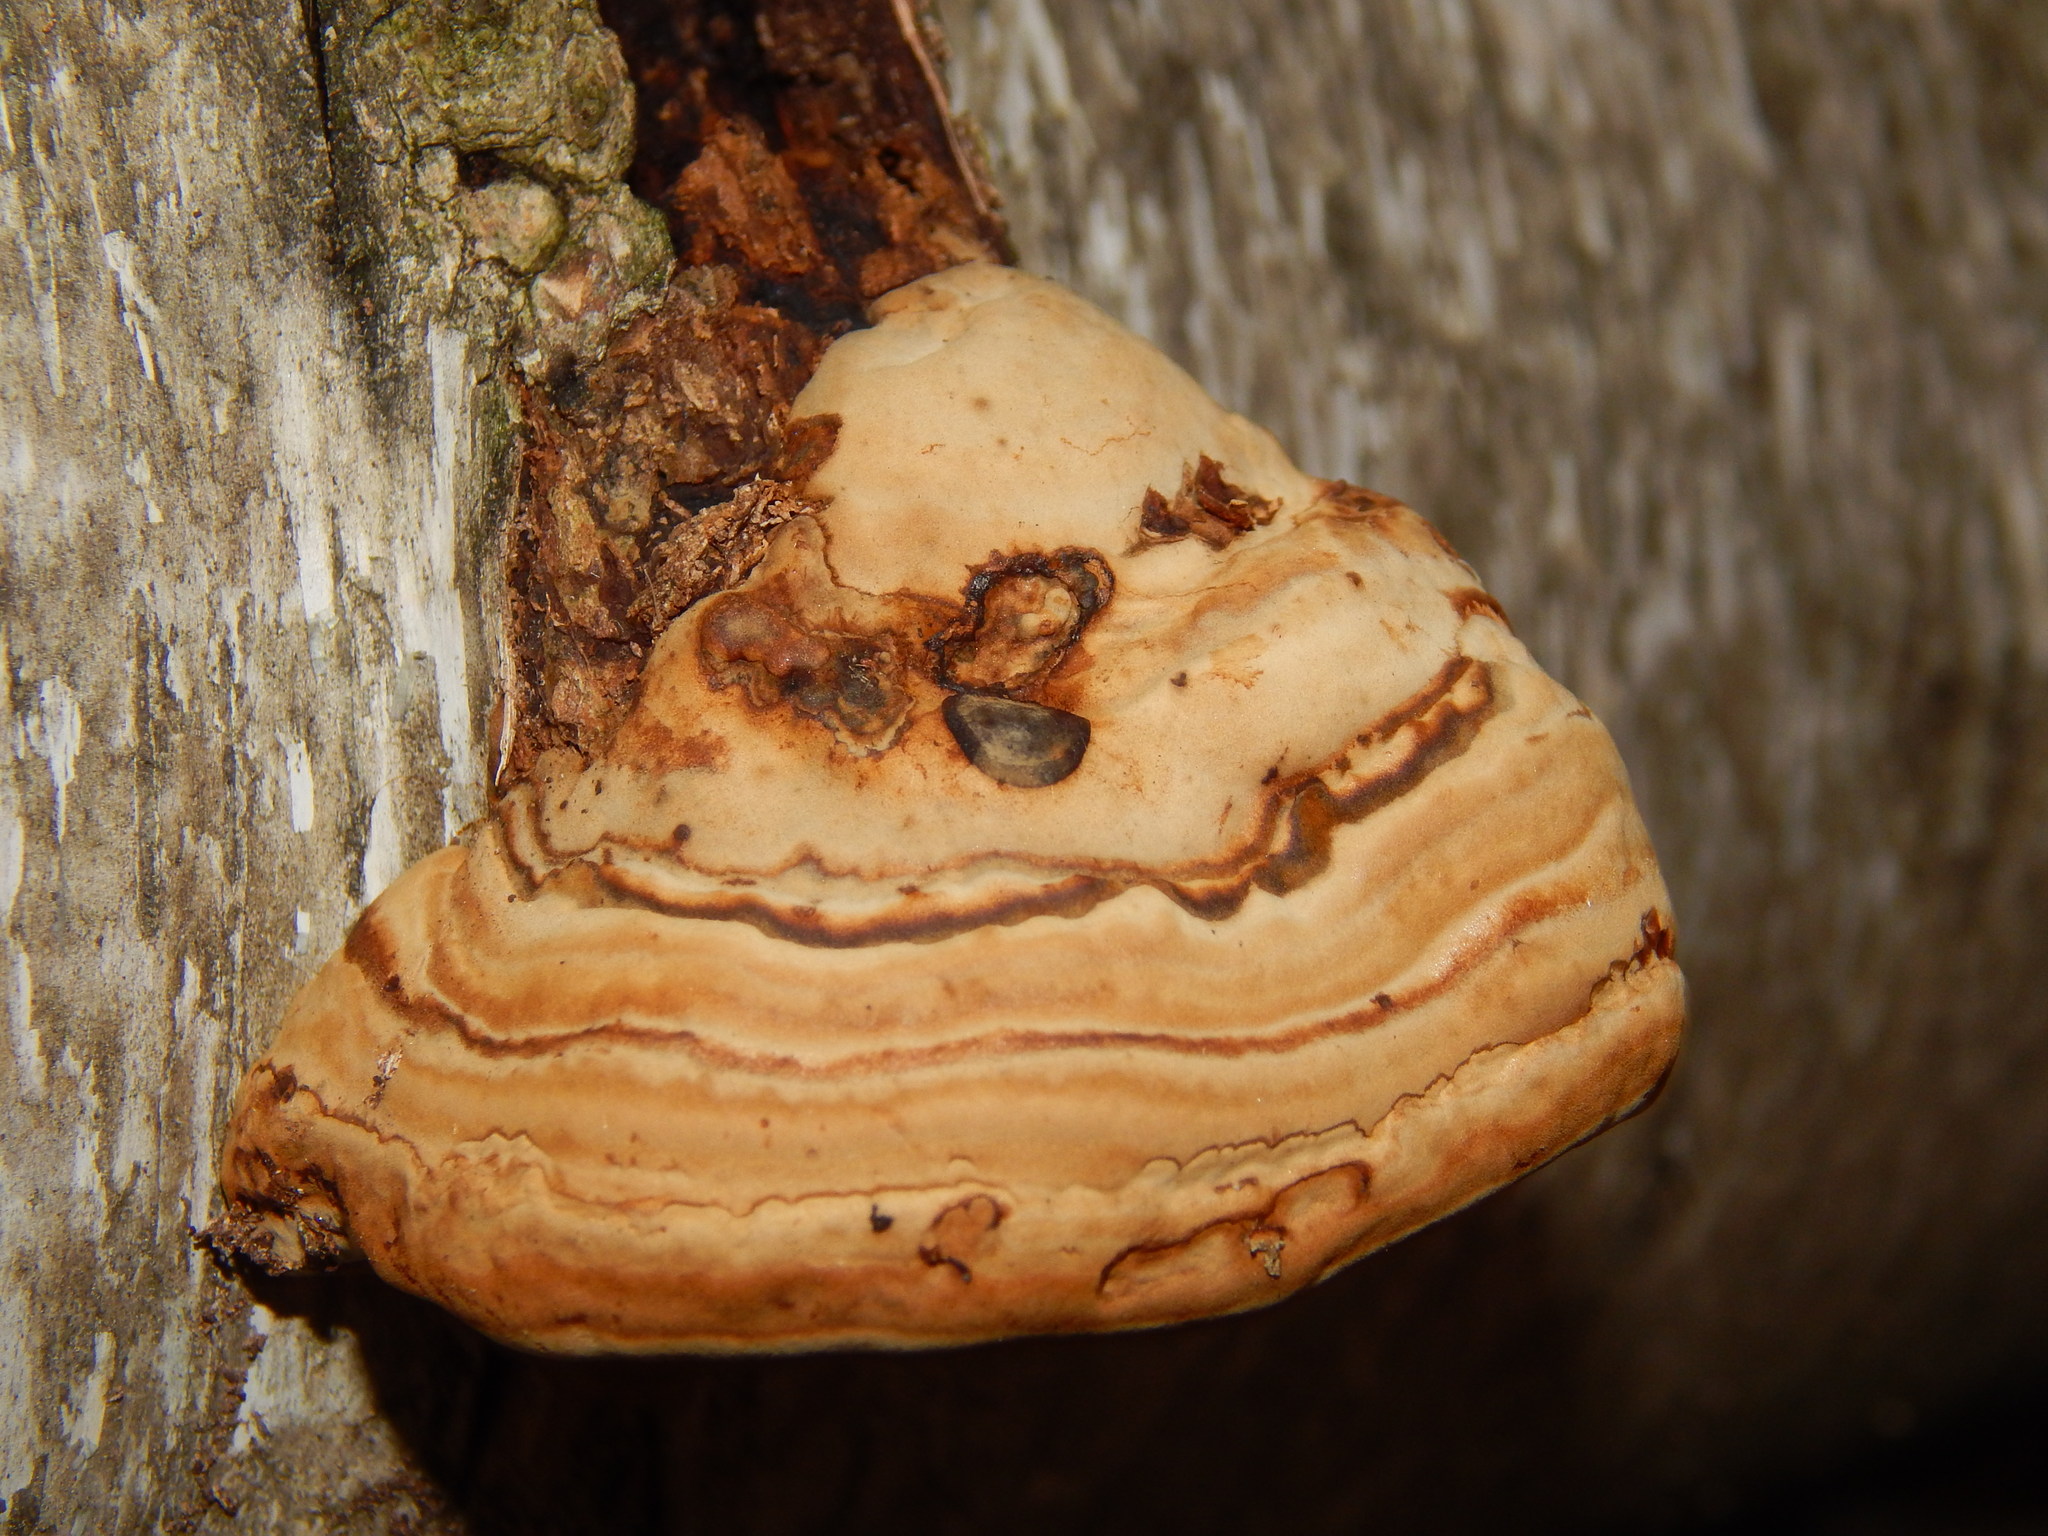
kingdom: Fungi
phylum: Basidiomycota
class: Agaricomycetes
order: Polyporales
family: Polyporaceae
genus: Fomes
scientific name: Fomes fomentarius
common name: Hoof fungus
